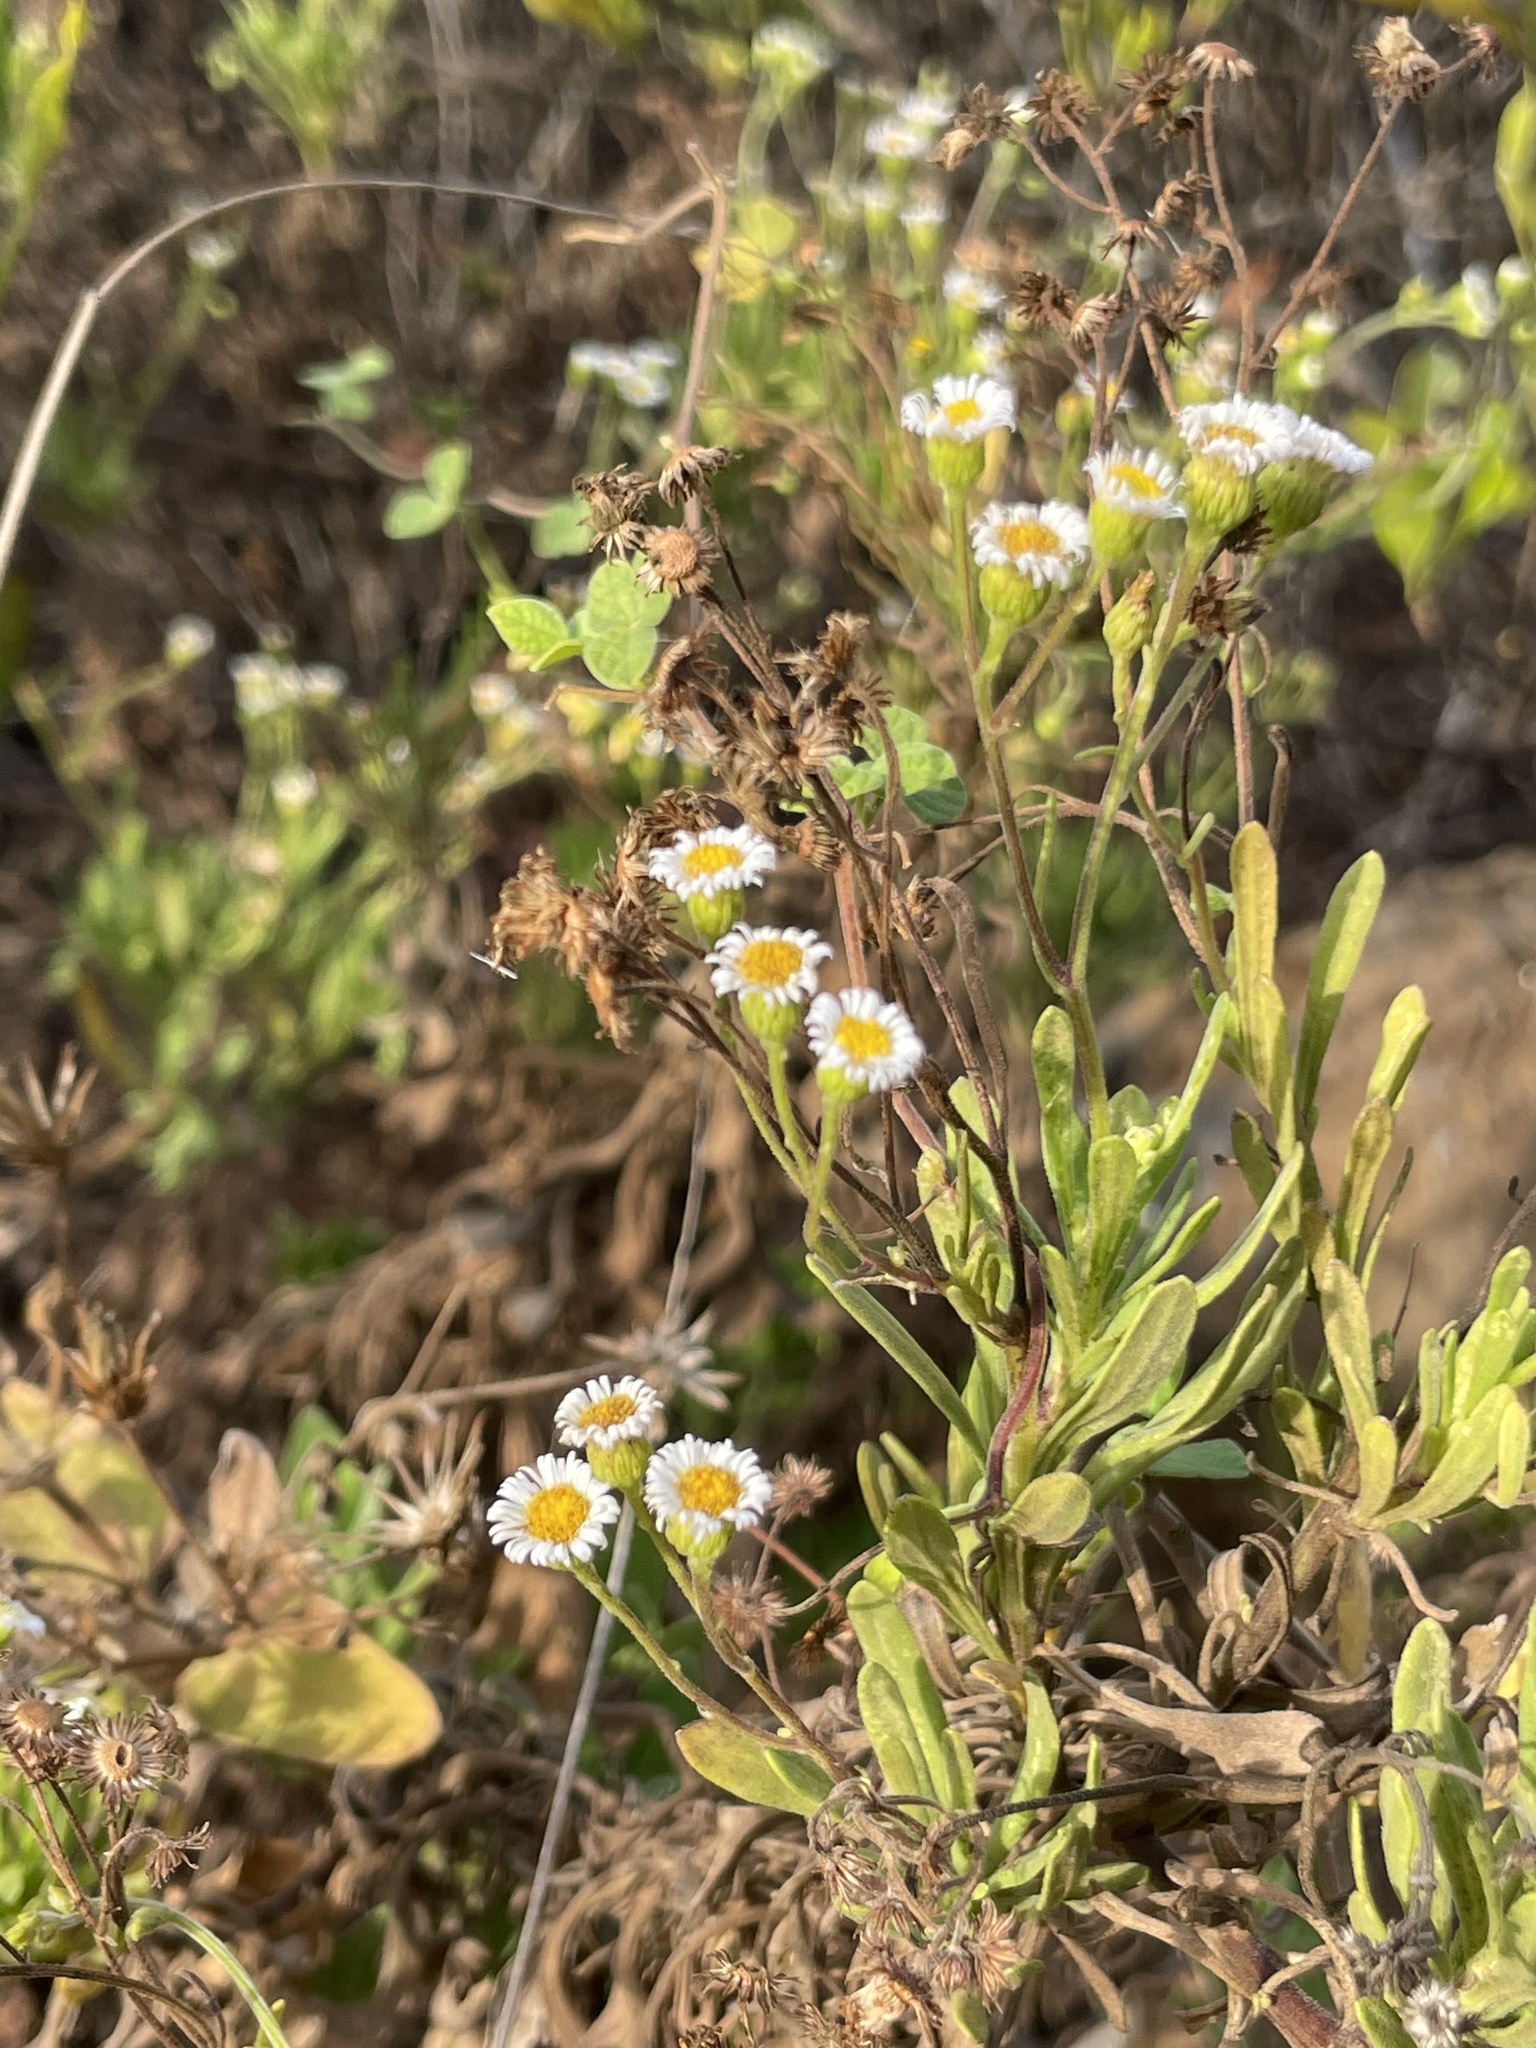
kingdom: Plantae
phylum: Tracheophyta
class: Magnoliopsida
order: Asterales
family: Asteraceae
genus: Erigeron
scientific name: Erigeron socorrensis
